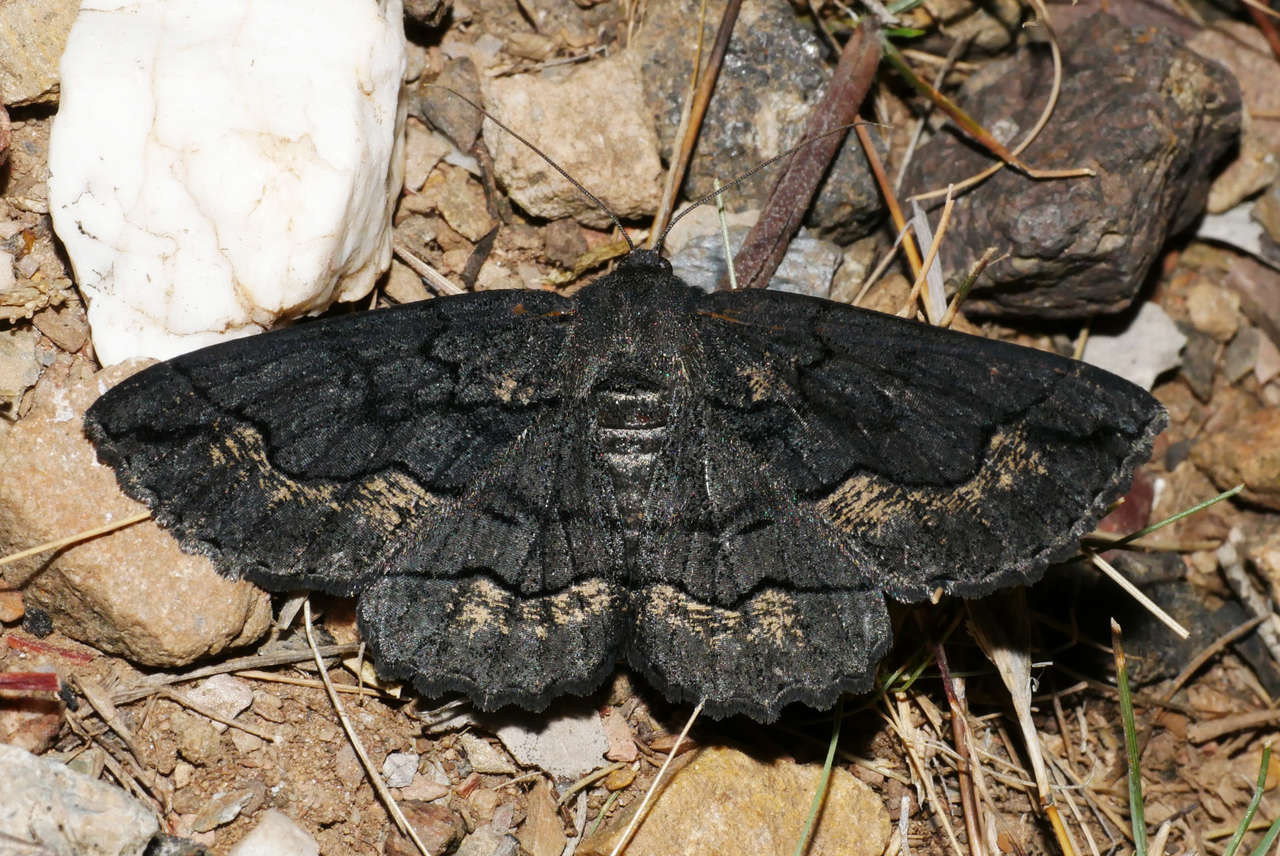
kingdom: Animalia
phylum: Arthropoda
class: Insecta
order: Lepidoptera
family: Geometridae
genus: Melanodes
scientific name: Melanodes anthracitaria
